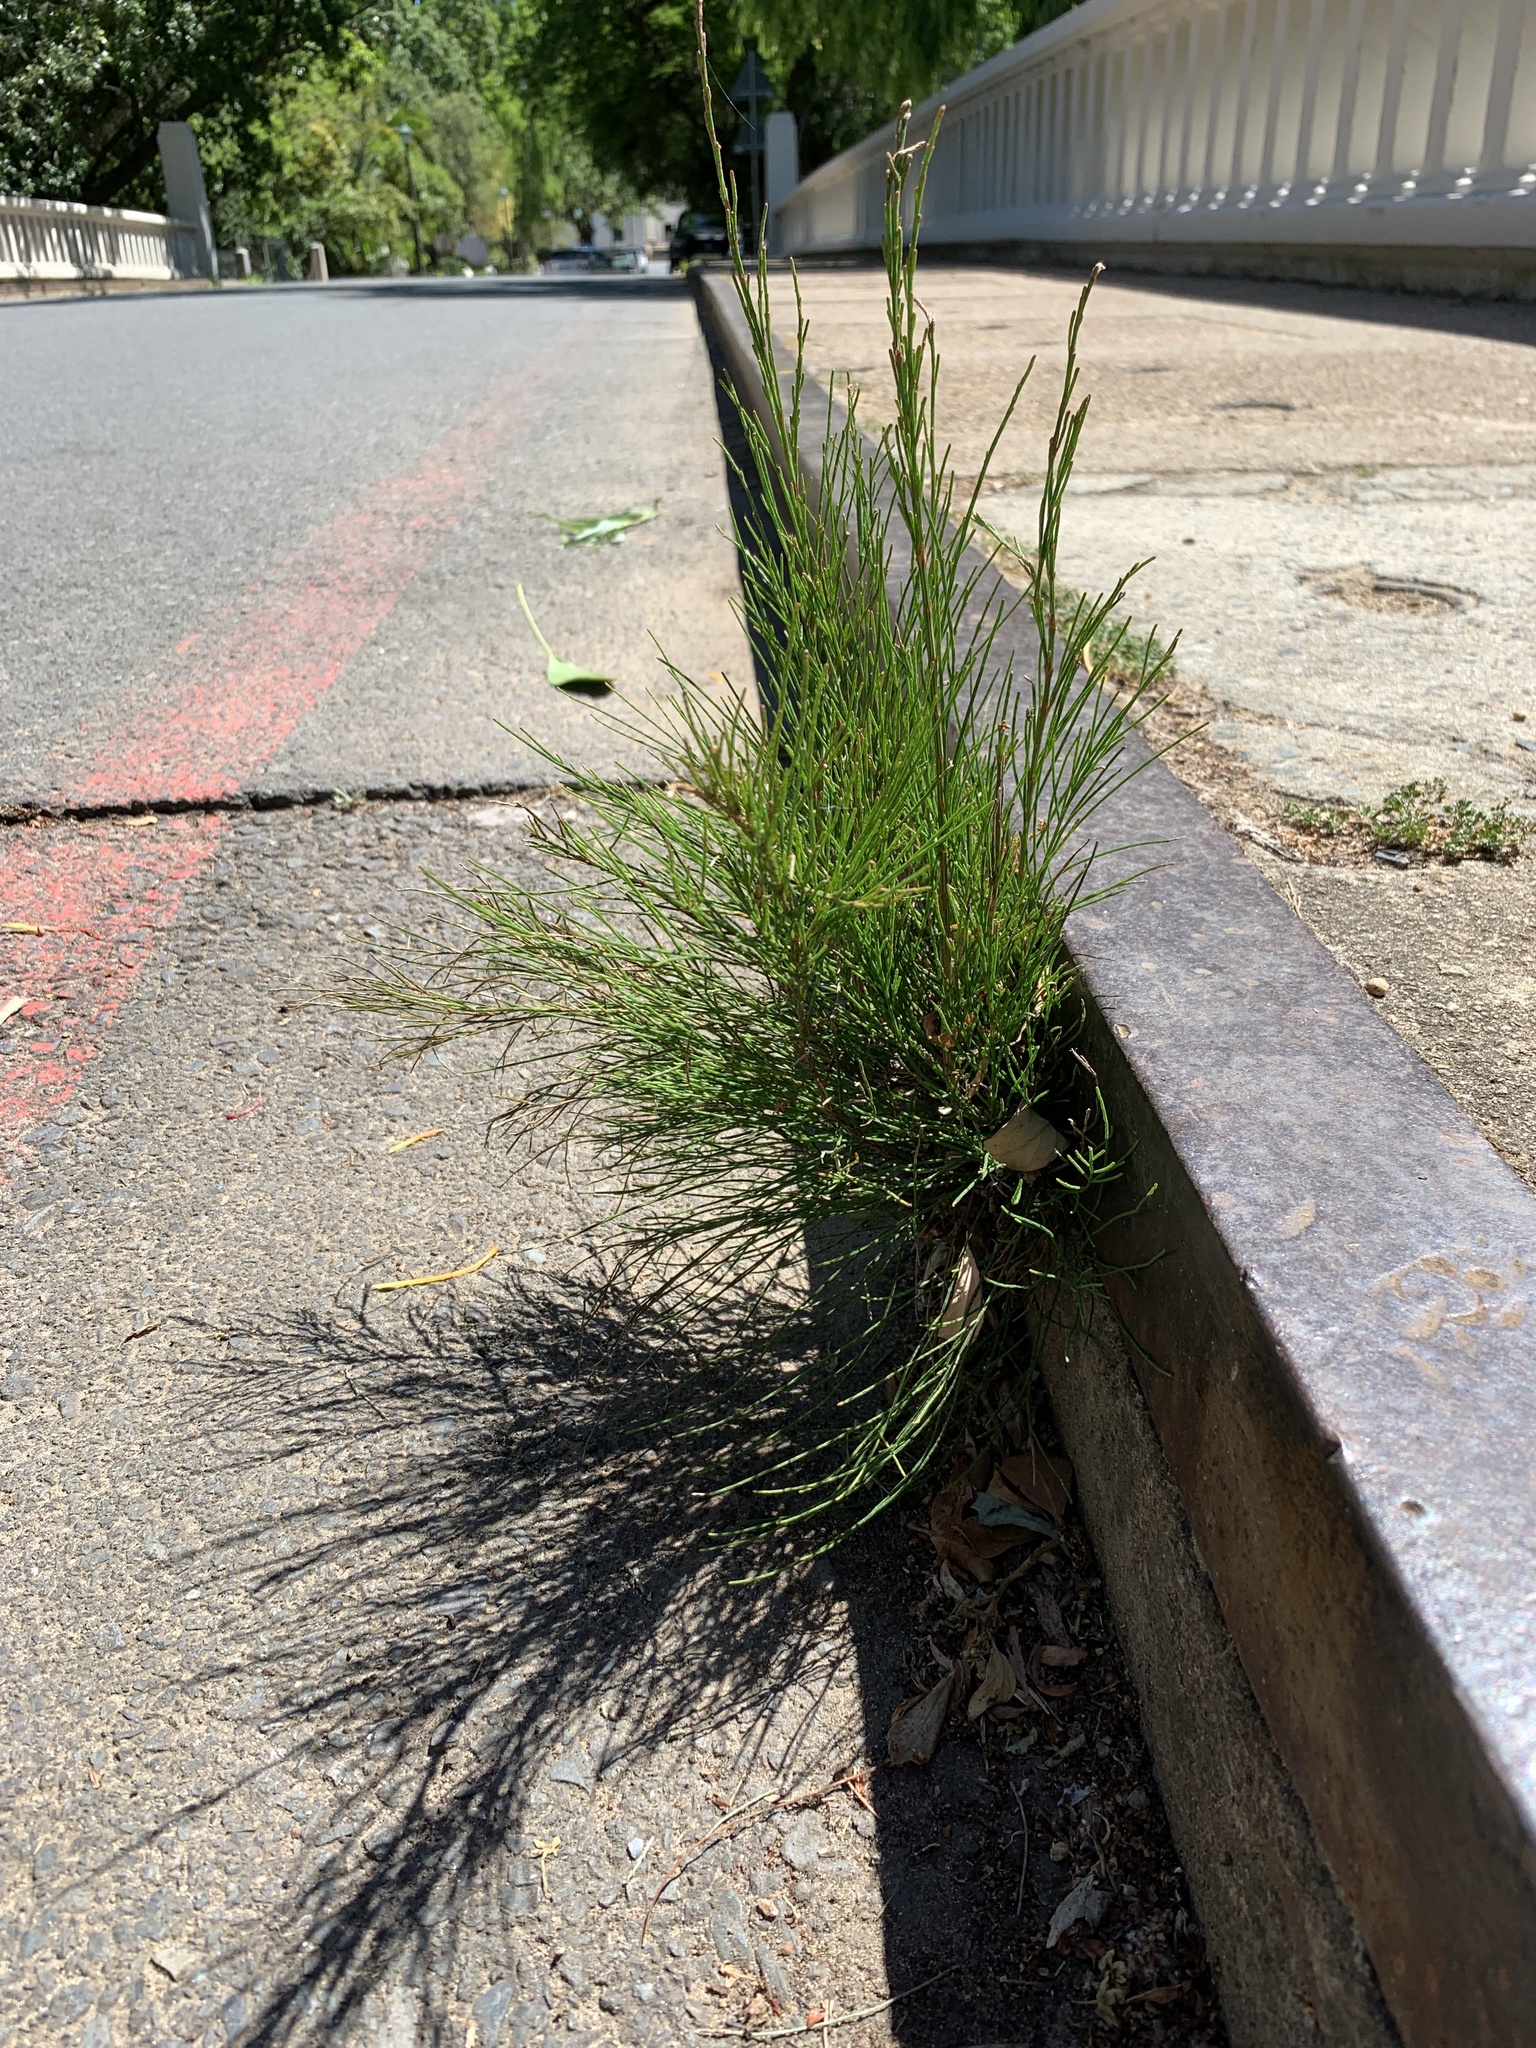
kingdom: Plantae
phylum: Tracheophyta
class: Magnoliopsida
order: Fagales
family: Casuarinaceae
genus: Casuarina
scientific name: Casuarina cunninghamiana
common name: River sheoak
